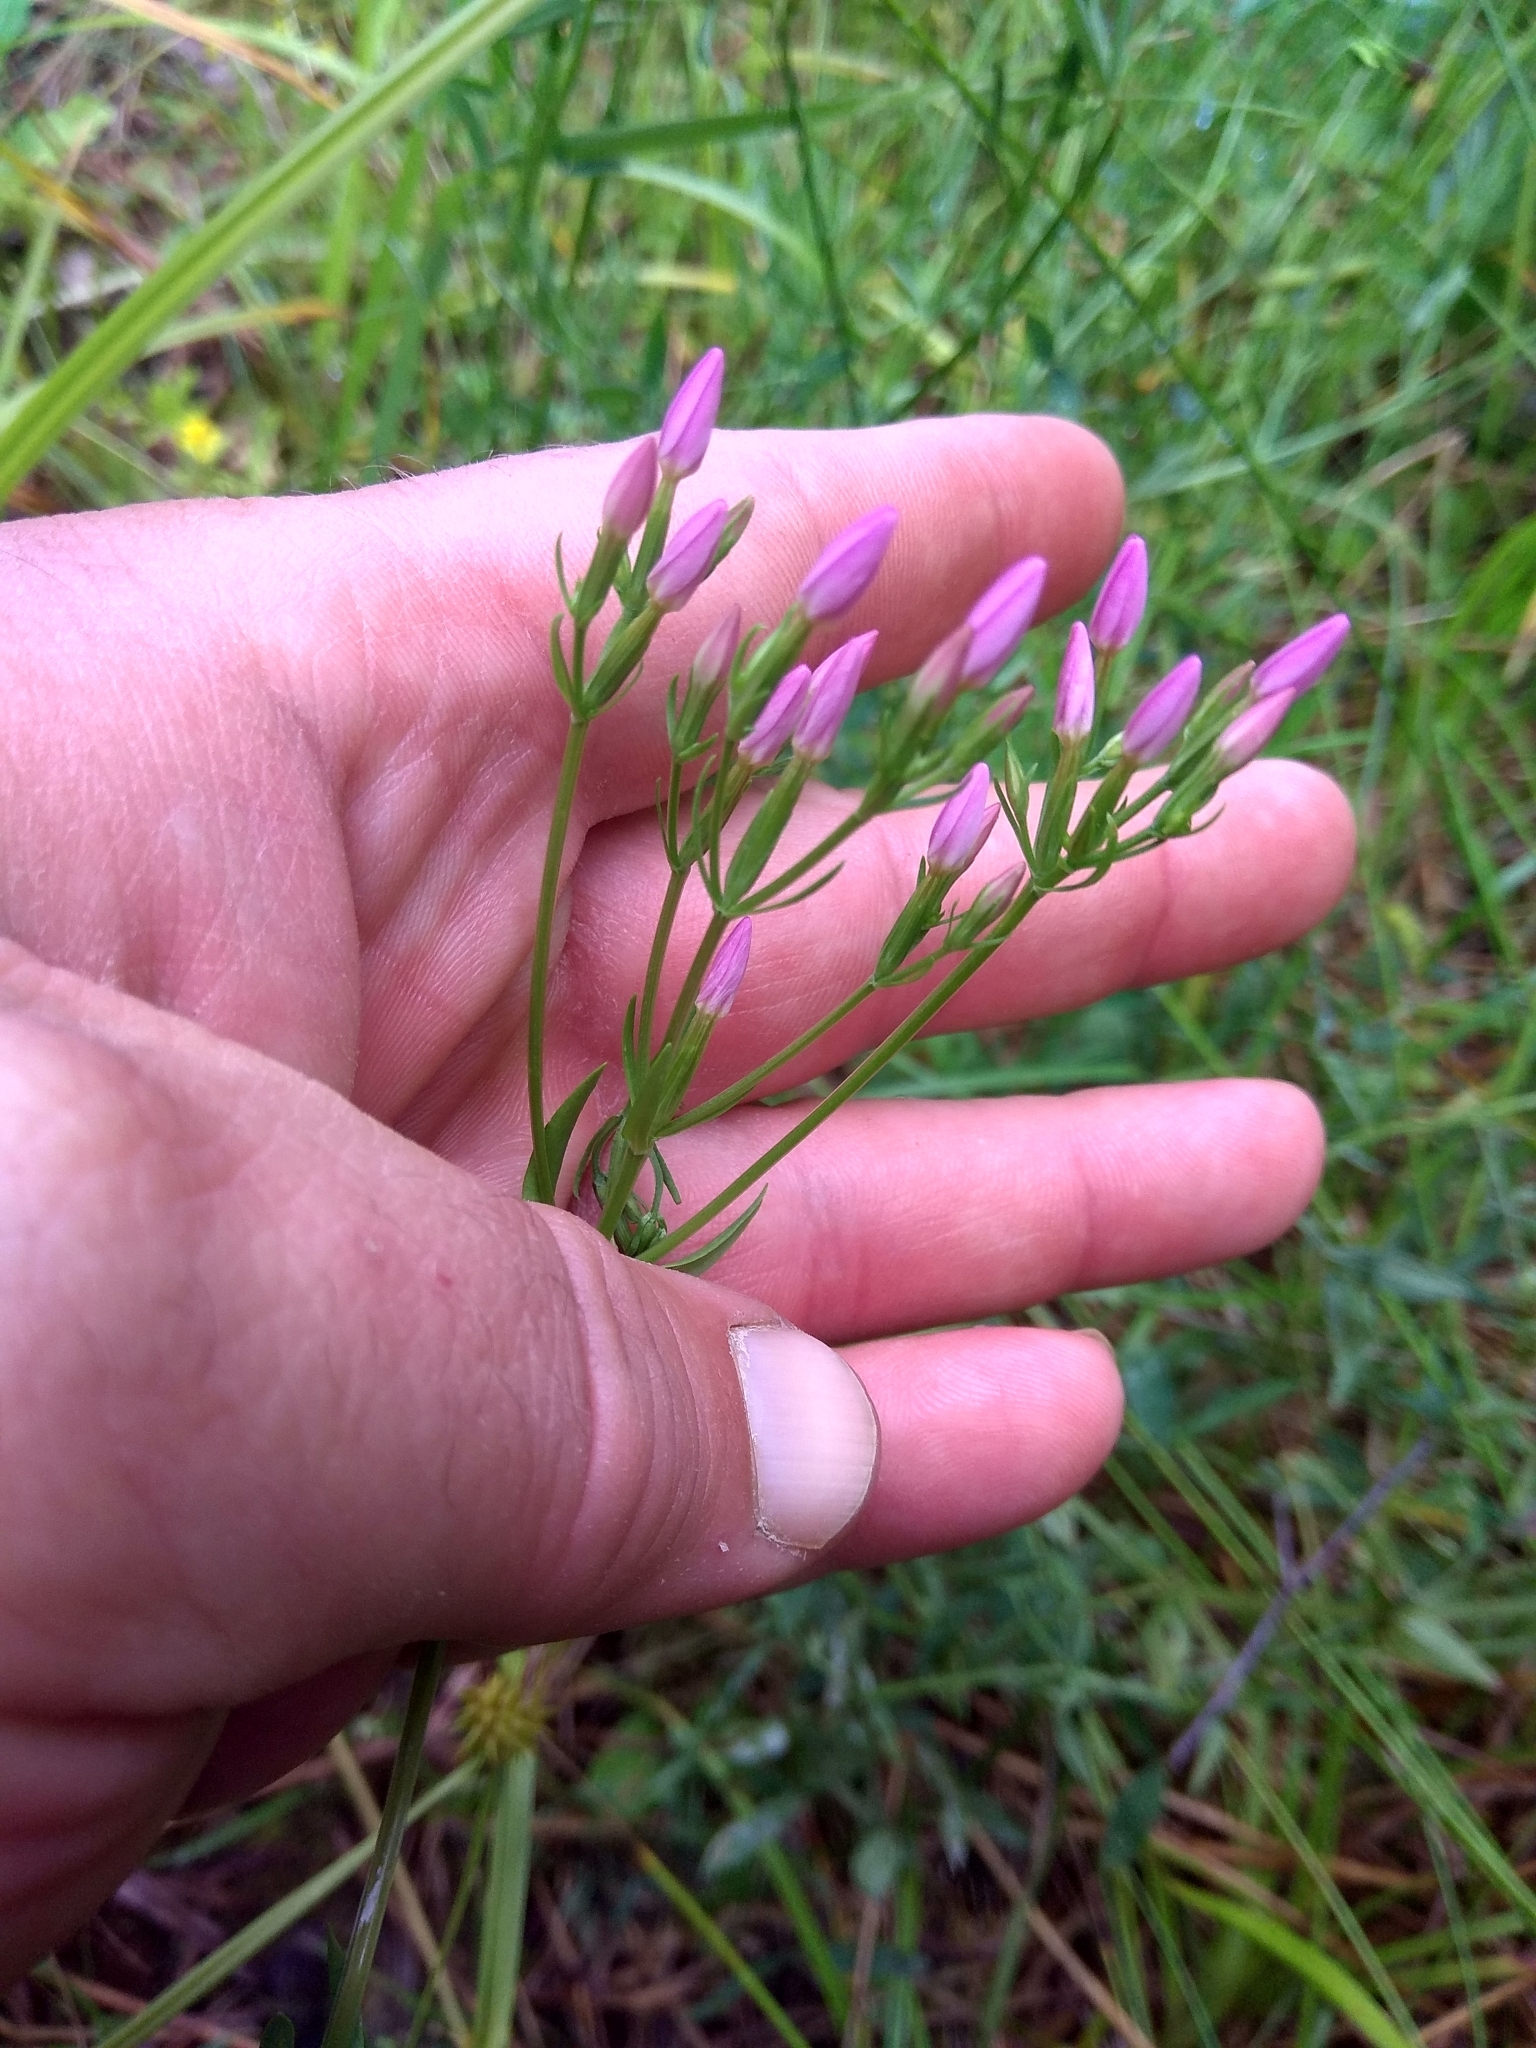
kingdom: Plantae
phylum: Tracheophyta
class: Magnoliopsida
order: Gentianales
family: Gentianaceae
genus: Centaurium
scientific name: Centaurium erythraea
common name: Common centaury
